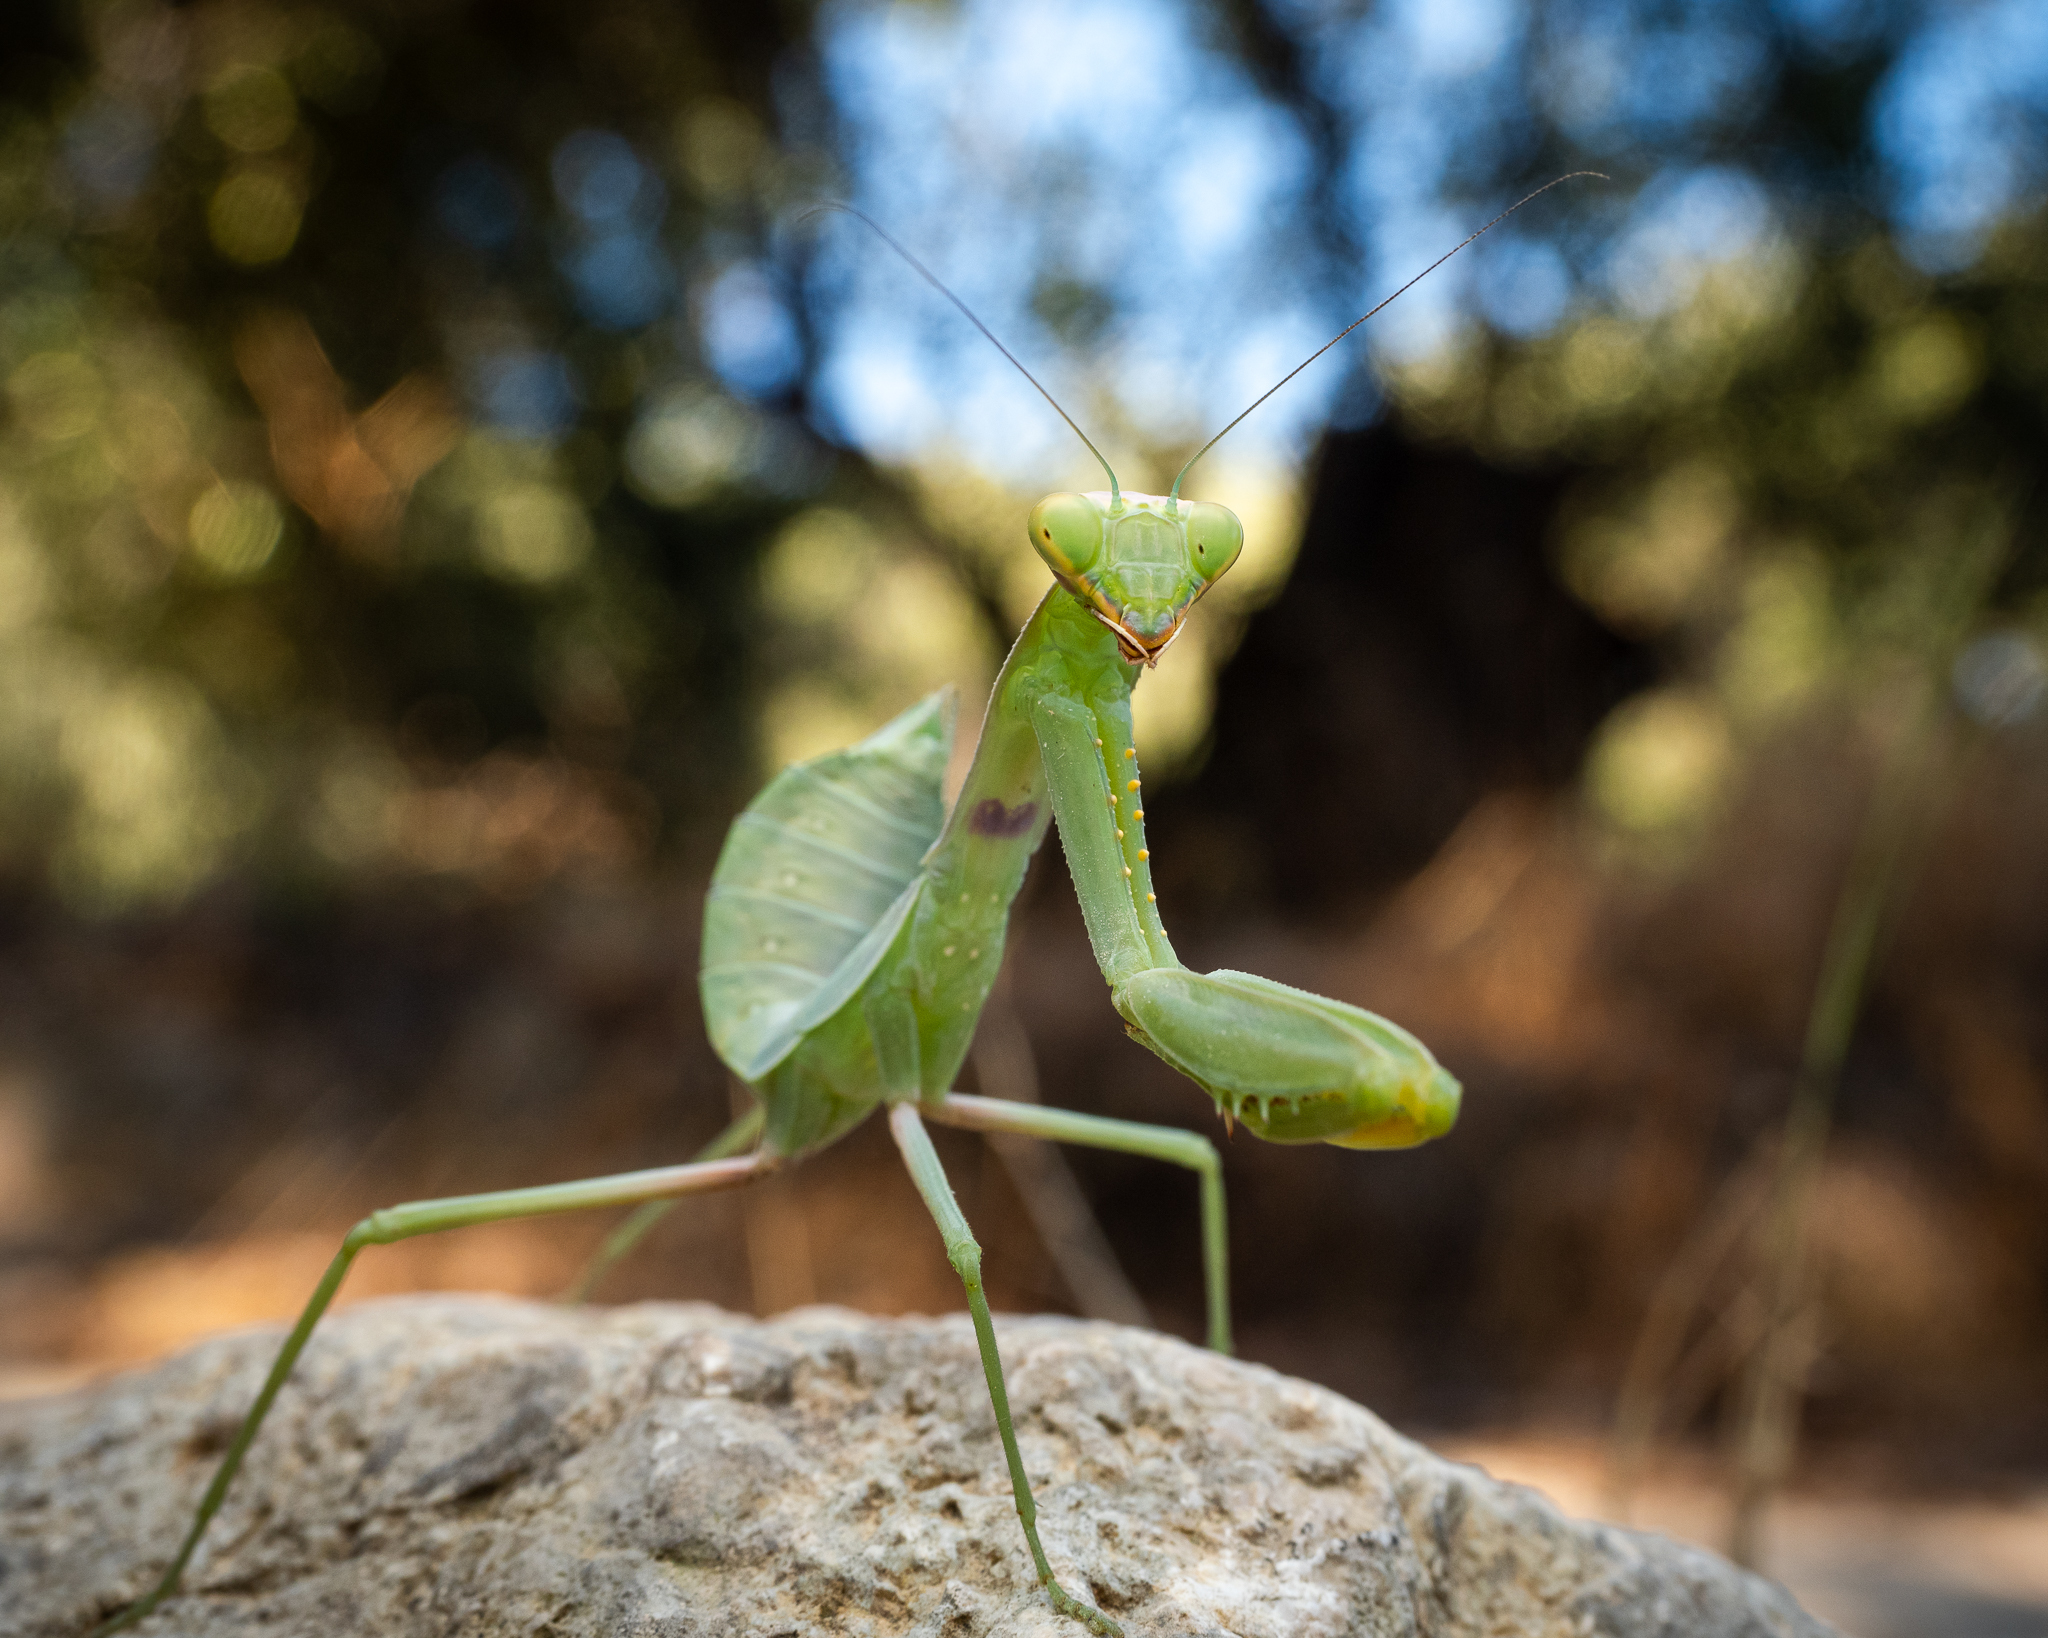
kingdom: Animalia
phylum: Arthropoda
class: Insecta
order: Mantodea
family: Mantidae
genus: Hierodula
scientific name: Hierodula transcaucasica
